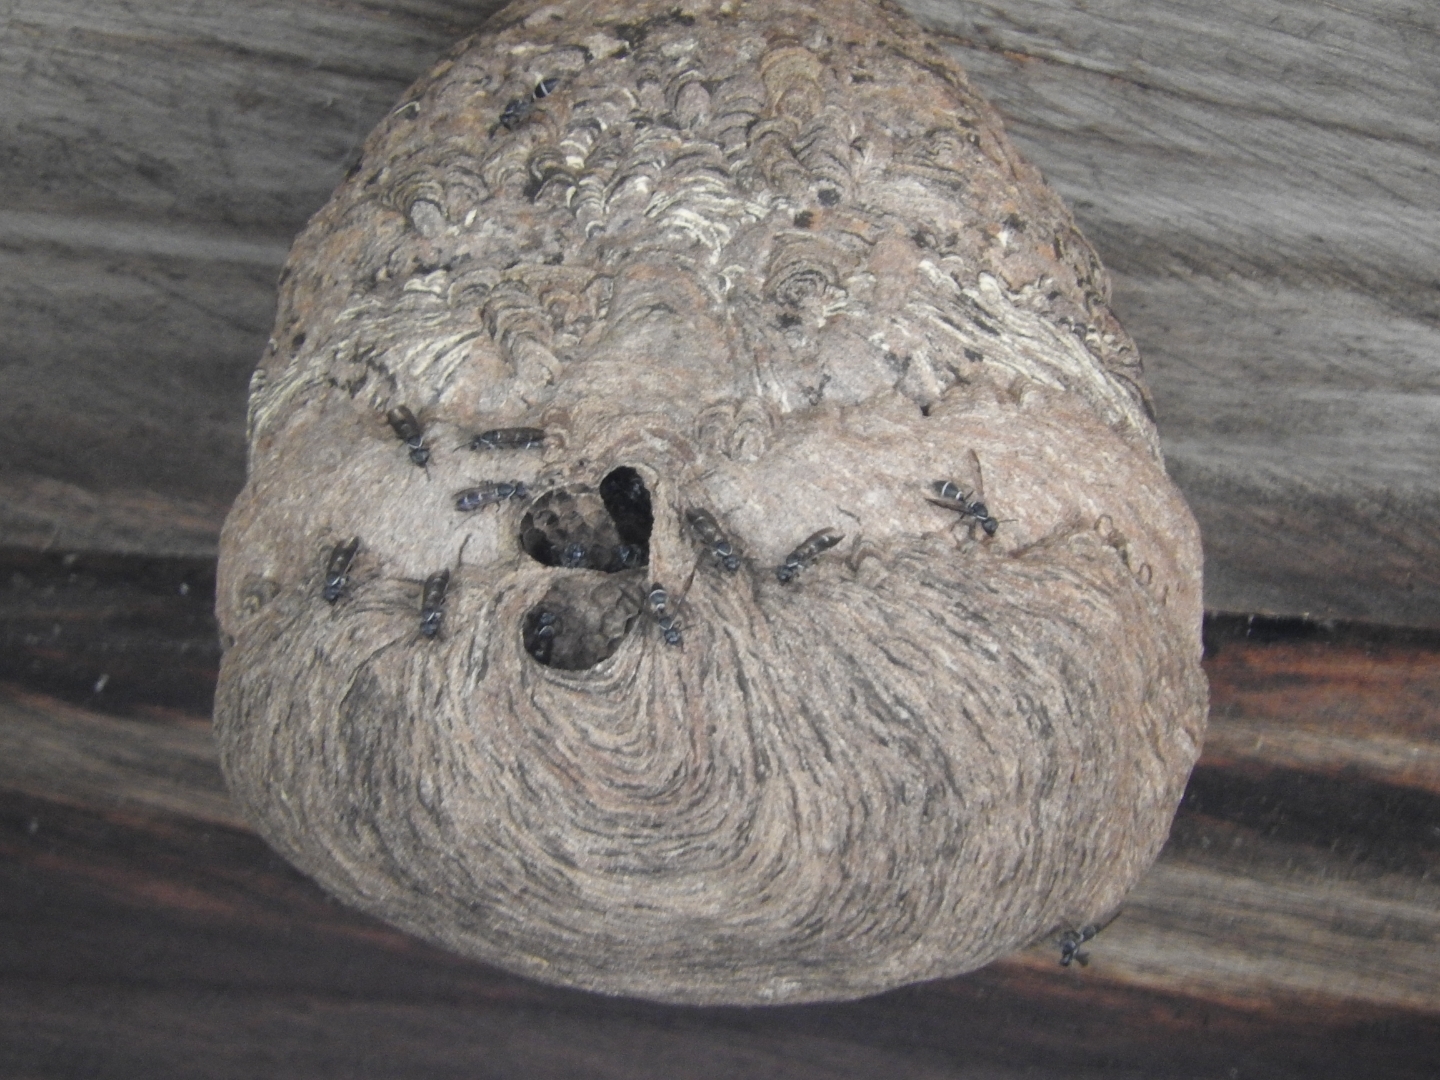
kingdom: Animalia
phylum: Arthropoda
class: Insecta
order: Hymenoptera
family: Eumenidae
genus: Polybia
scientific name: Polybia plebeja
